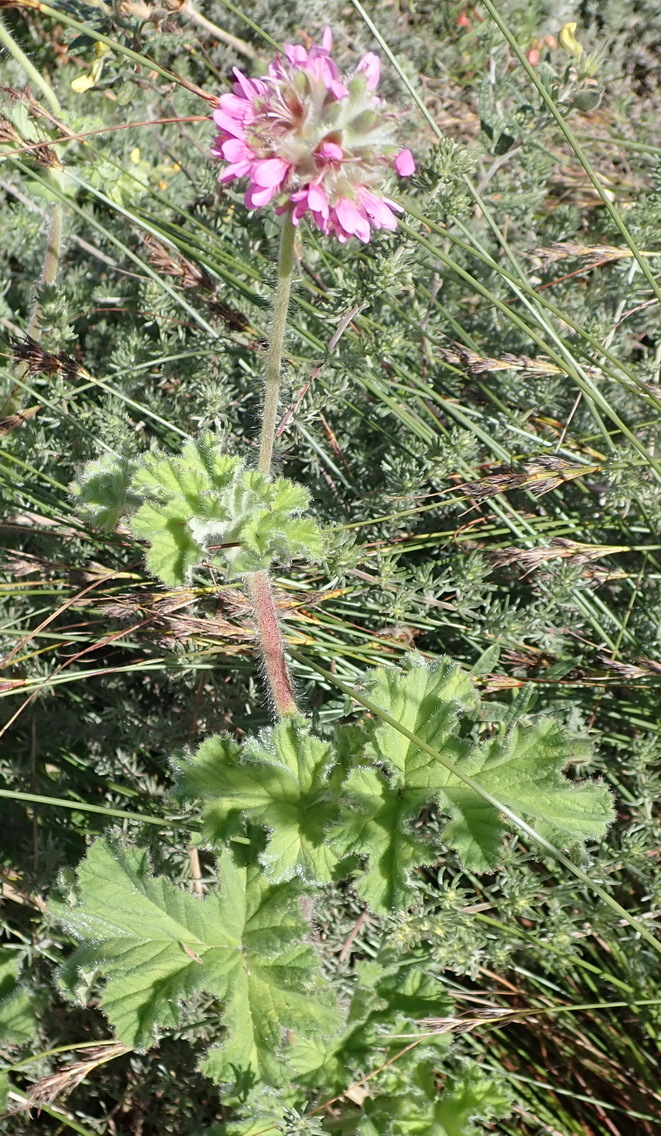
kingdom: Plantae
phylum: Tracheophyta
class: Magnoliopsida
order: Geraniales
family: Geraniaceae
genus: Pelargonium
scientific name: Pelargonium capitatum
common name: Rose scented geranium
